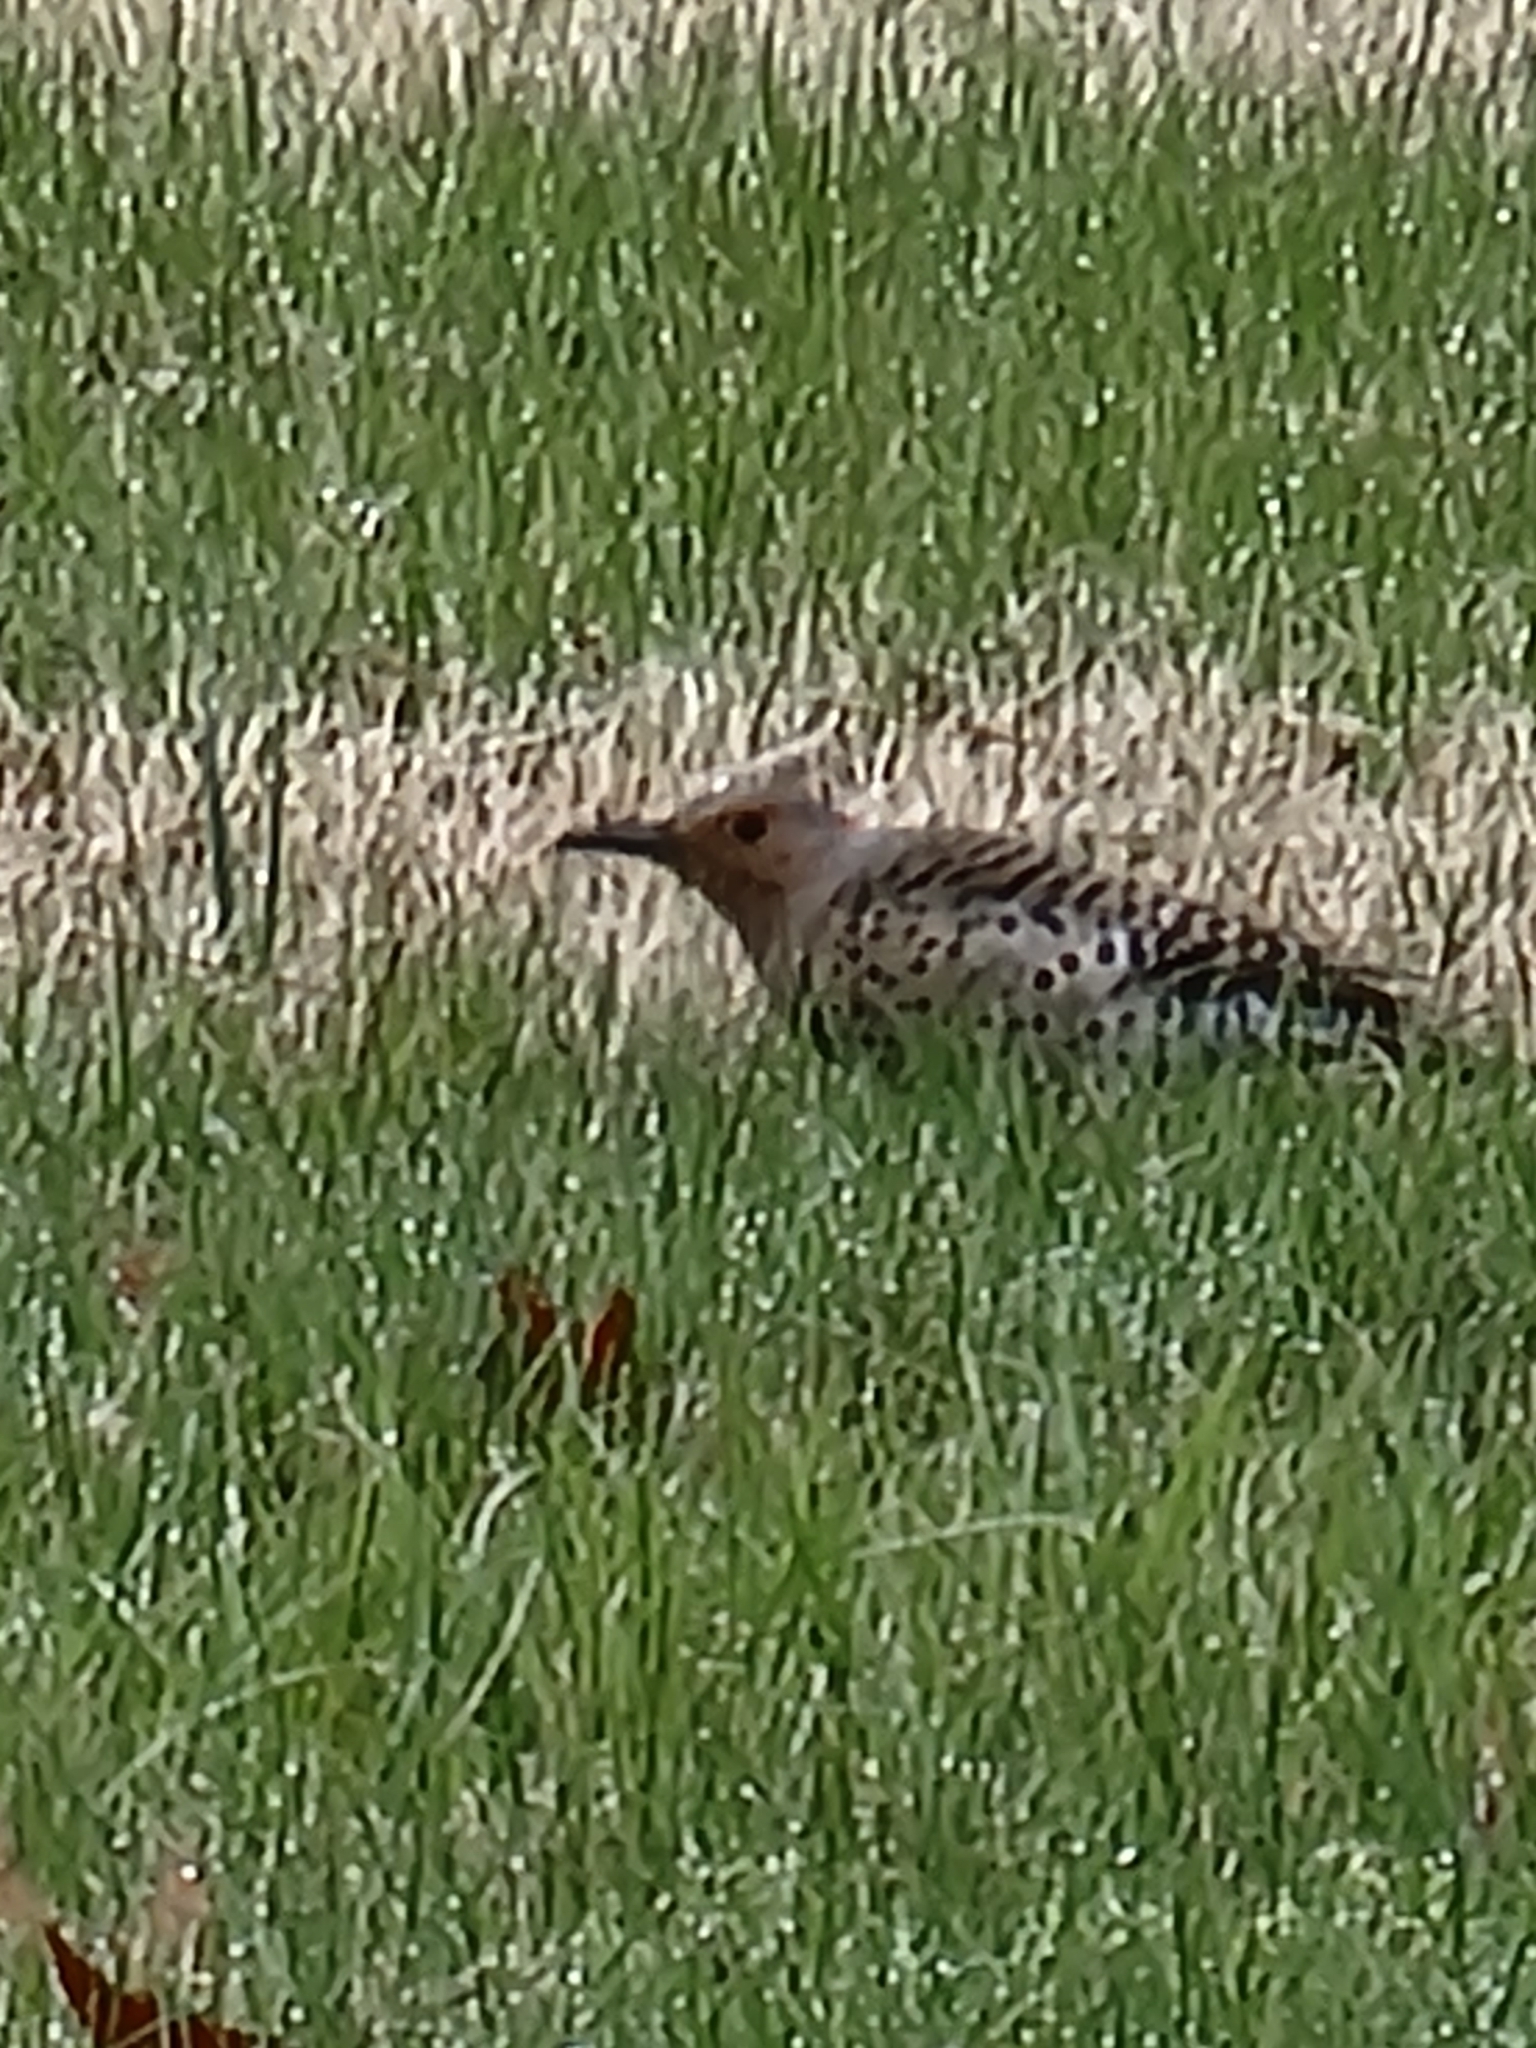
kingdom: Animalia
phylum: Chordata
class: Aves
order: Piciformes
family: Picidae
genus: Colaptes
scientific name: Colaptes auratus
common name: Northern flicker
